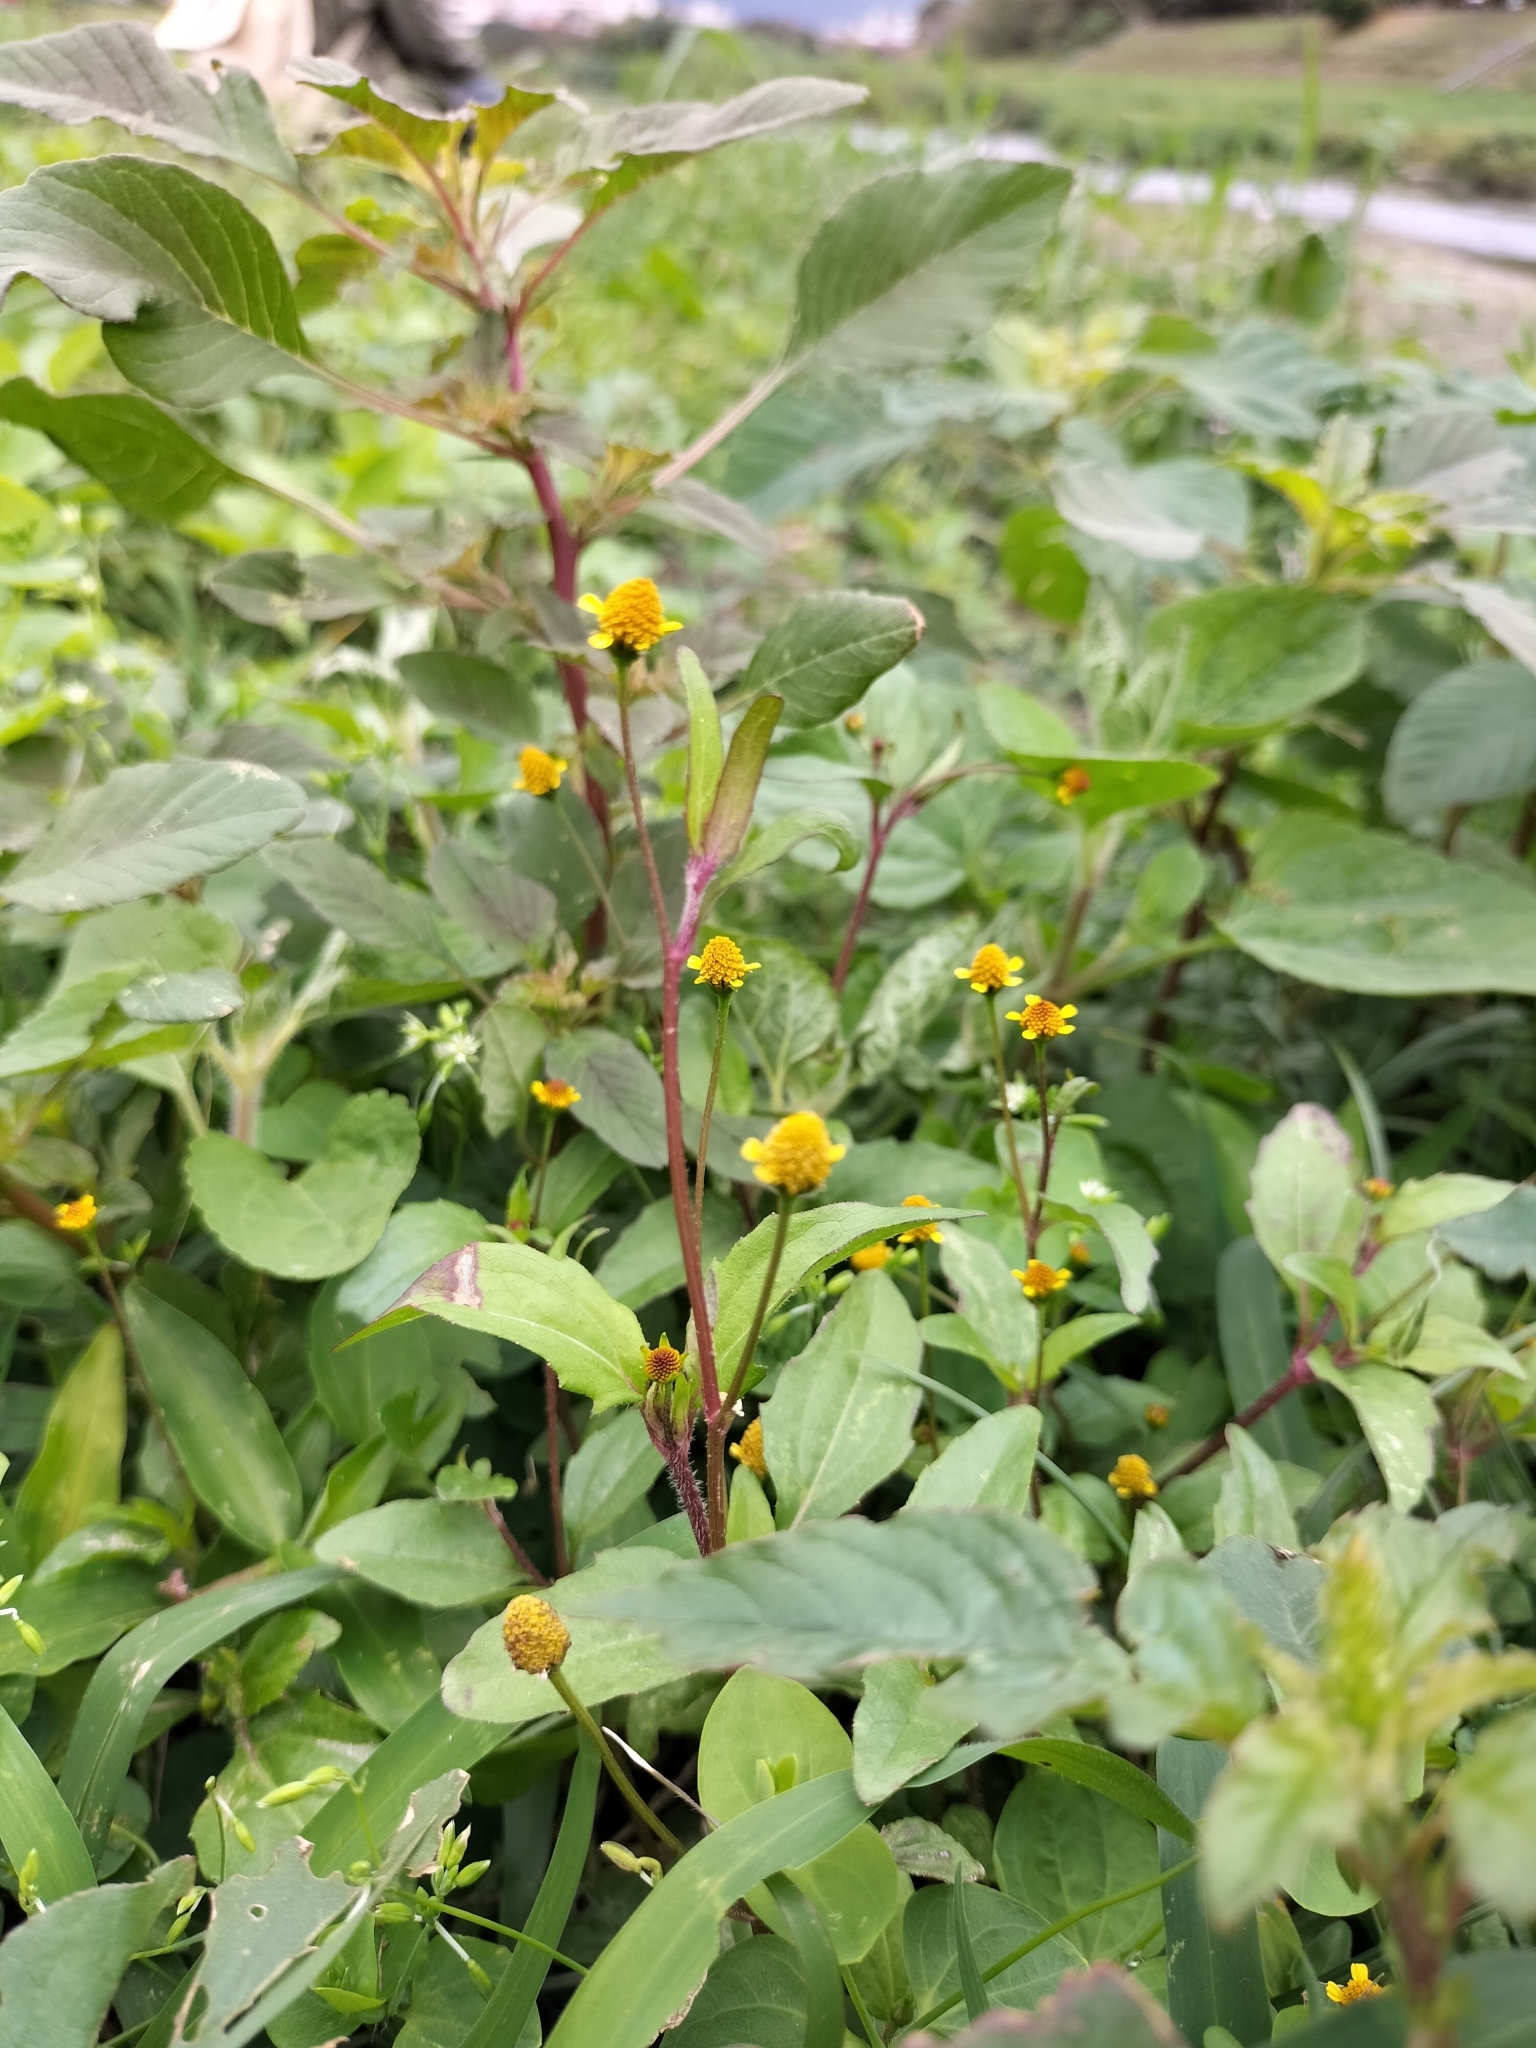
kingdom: Plantae
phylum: Tracheophyta
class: Magnoliopsida
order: Asterales
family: Asteraceae
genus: Acmella
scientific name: Acmella uliginosa
